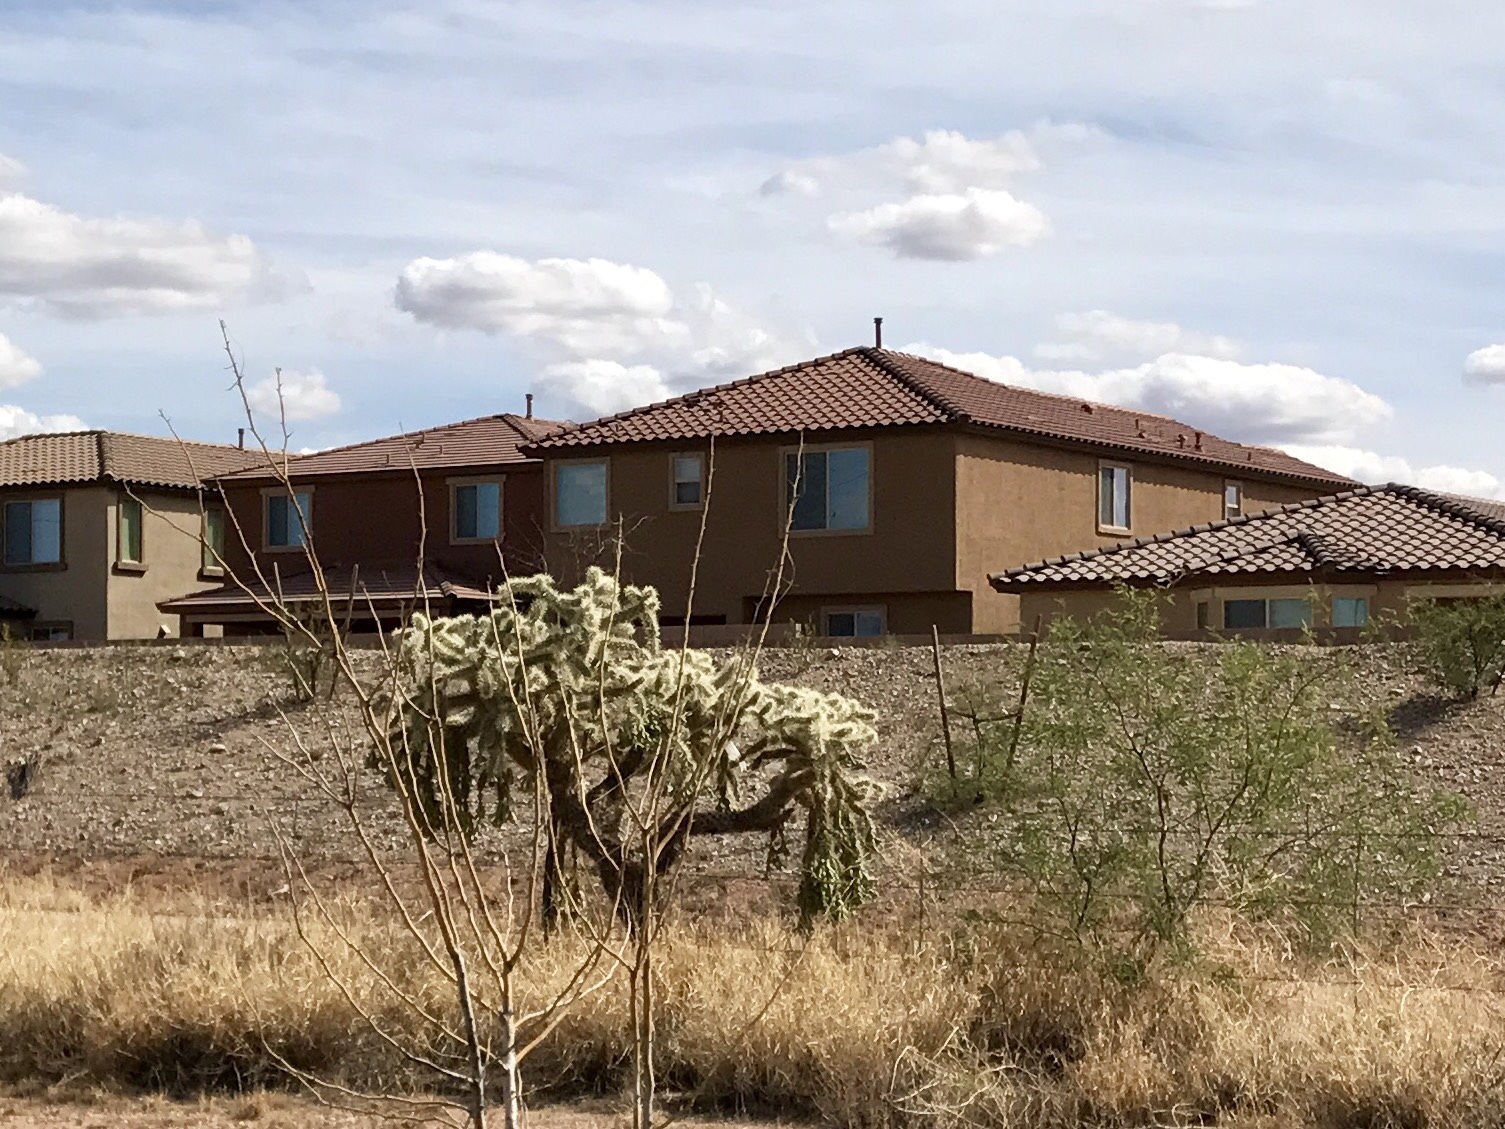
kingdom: Plantae
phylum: Tracheophyta
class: Magnoliopsida
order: Caryophyllales
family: Cactaceae
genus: Cylindropuntia
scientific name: Cylindropuntia fulgida
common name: Jumping cholla
